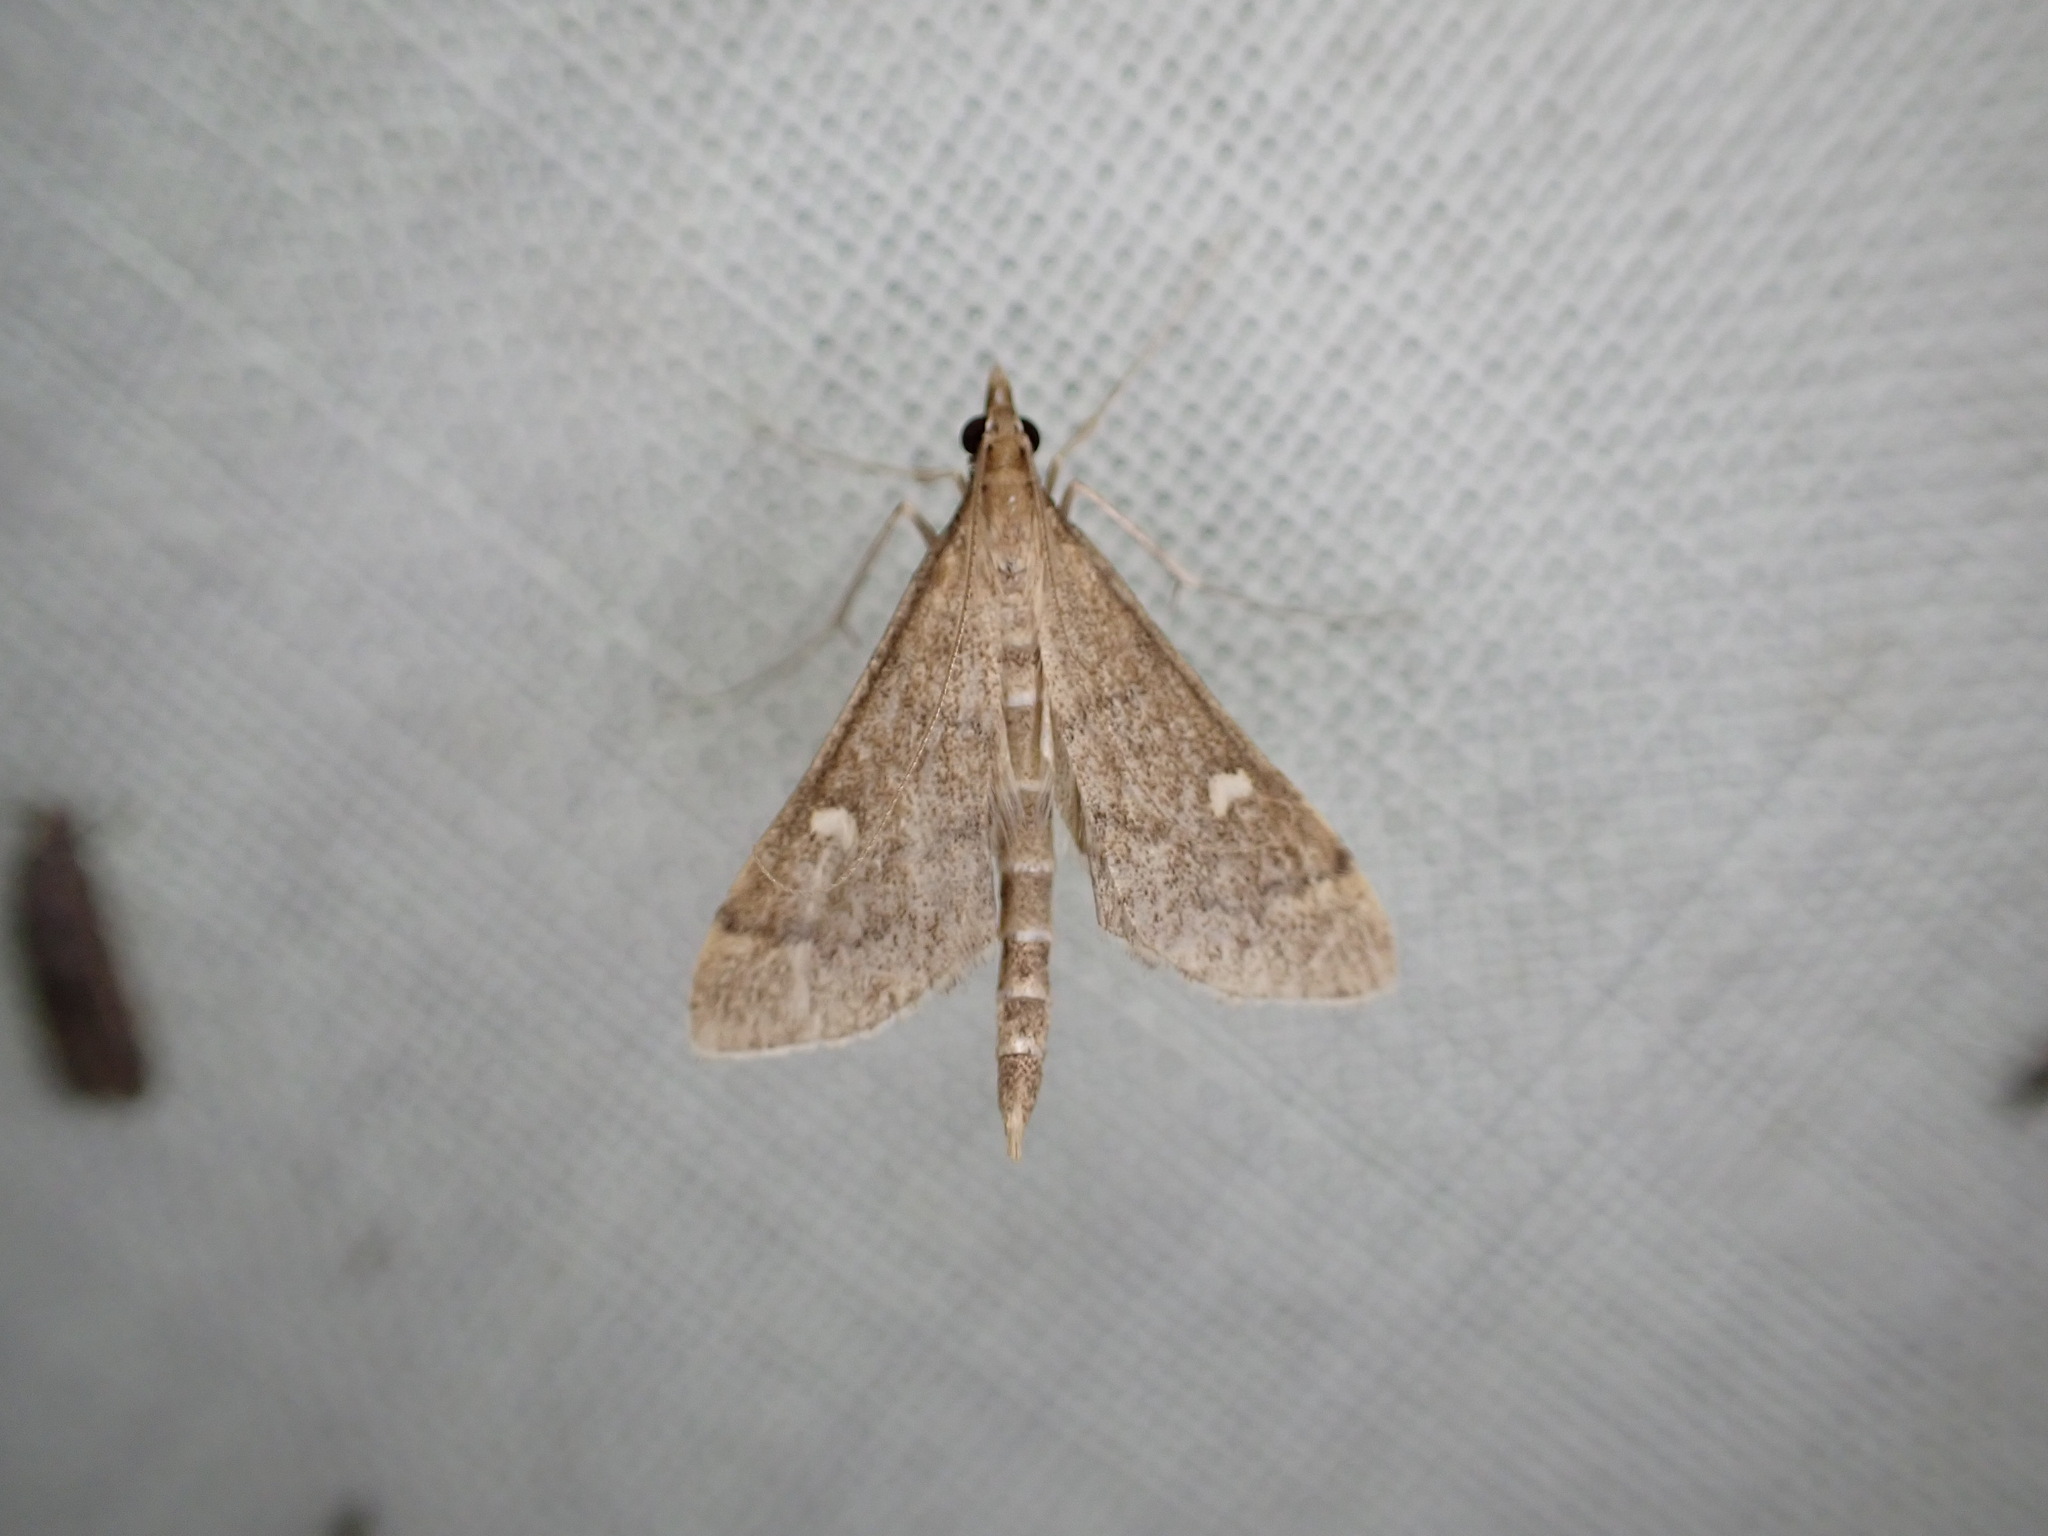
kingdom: Animalia
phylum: Arthropoda
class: Insecta
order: Lepidoptera
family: Crambidae
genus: Stenia
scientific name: Stenia Dolicharthria punctalis
